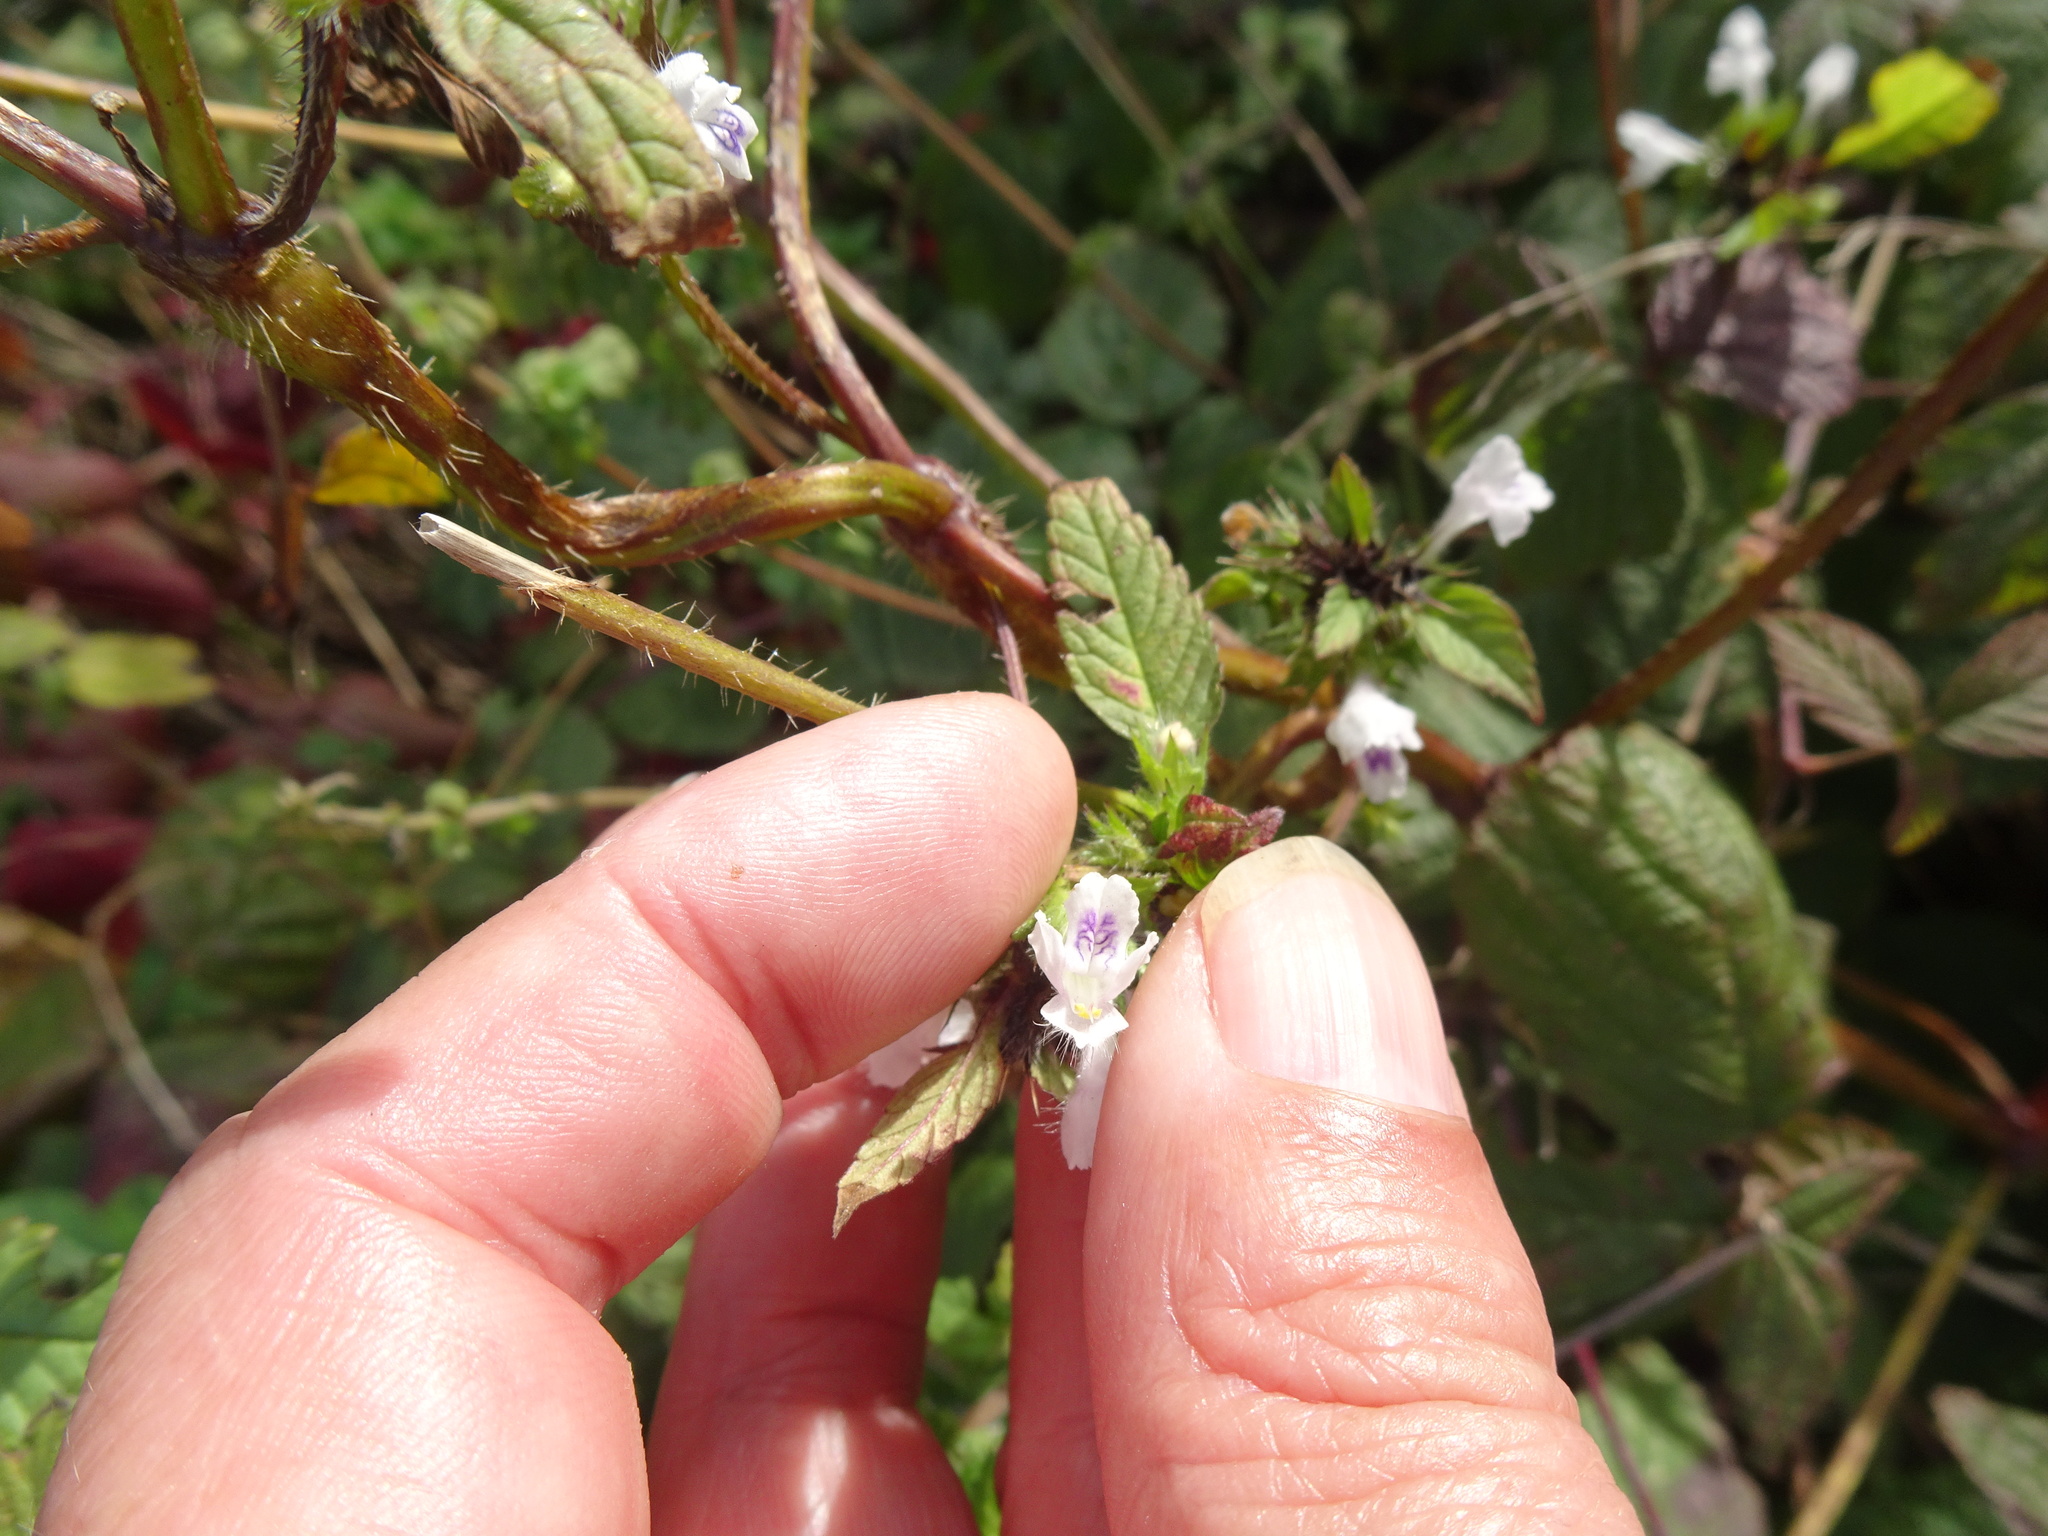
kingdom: Plantae
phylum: Tracheophyta
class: Magnoliopsida
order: Lamiales
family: Lamiaceae
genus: Galeopsis
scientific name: Galeopsis bifida
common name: Bifid hemp-nettle
